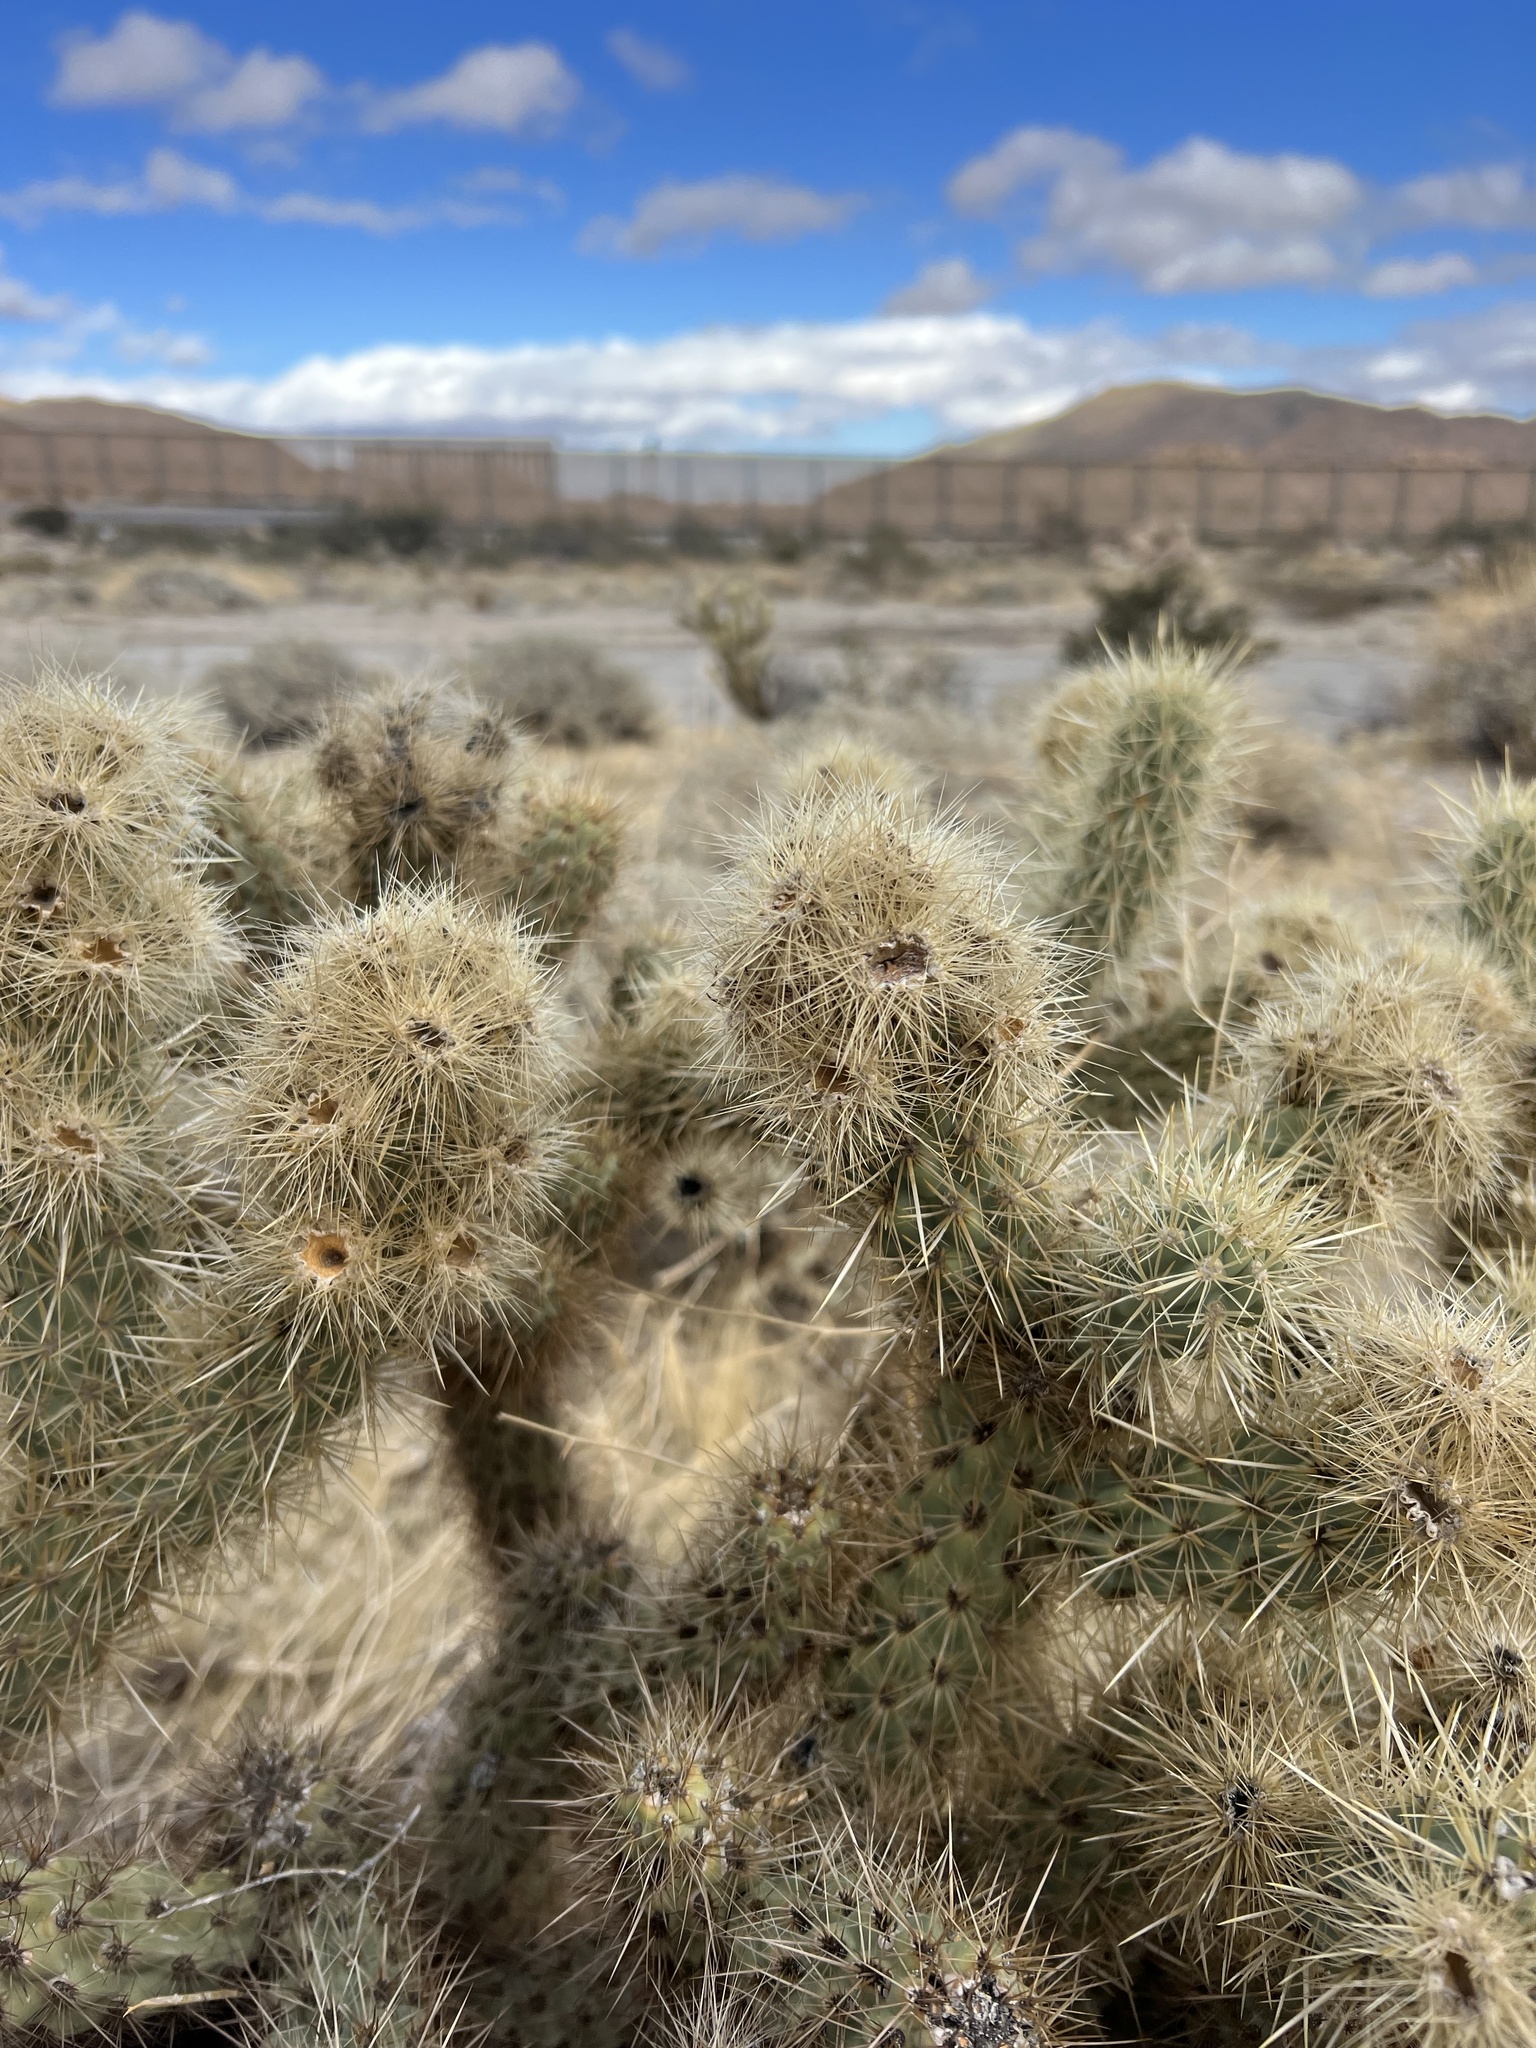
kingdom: Plantae
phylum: Tracheophyta
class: Magnoliopsida
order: Caryophyllales
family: Cactaceae
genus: Cylindropuntia
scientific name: Cylindropuntia wolfii
